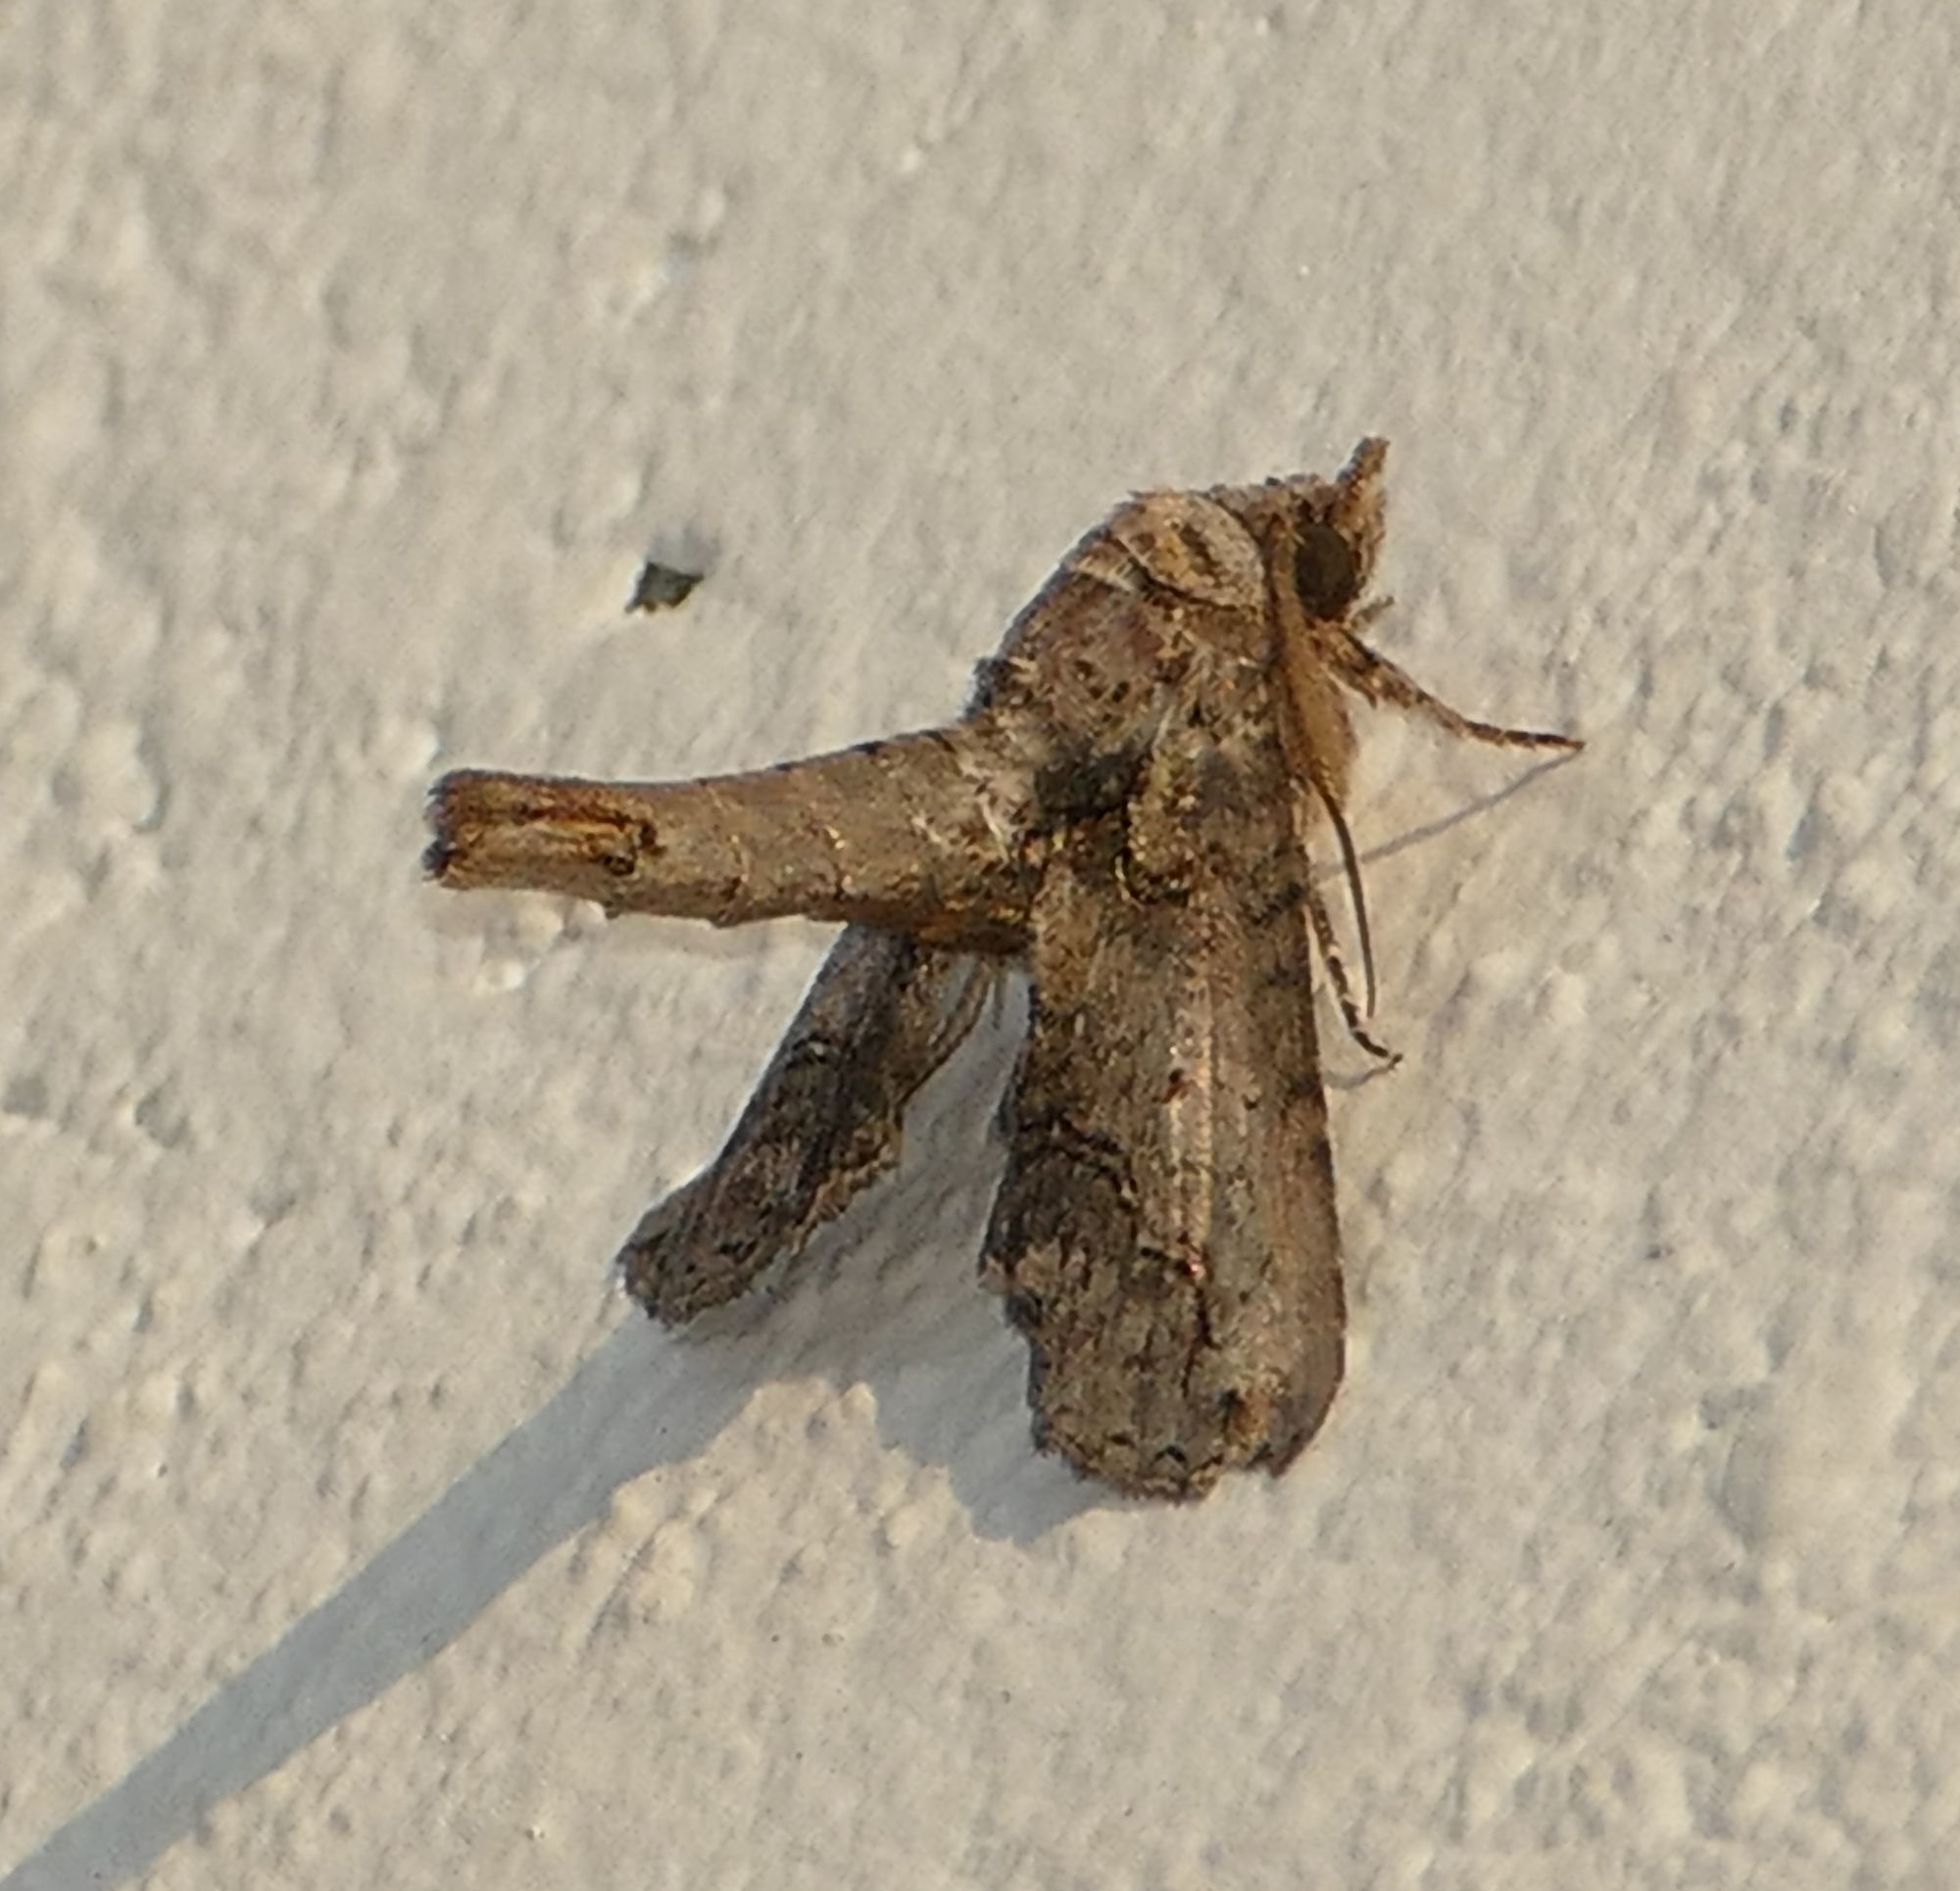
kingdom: Animalia
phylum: Arthropoda
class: Insecta
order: Lepidoptera
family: Euteliidae
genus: Paectes
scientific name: Paectes abrostoloides
